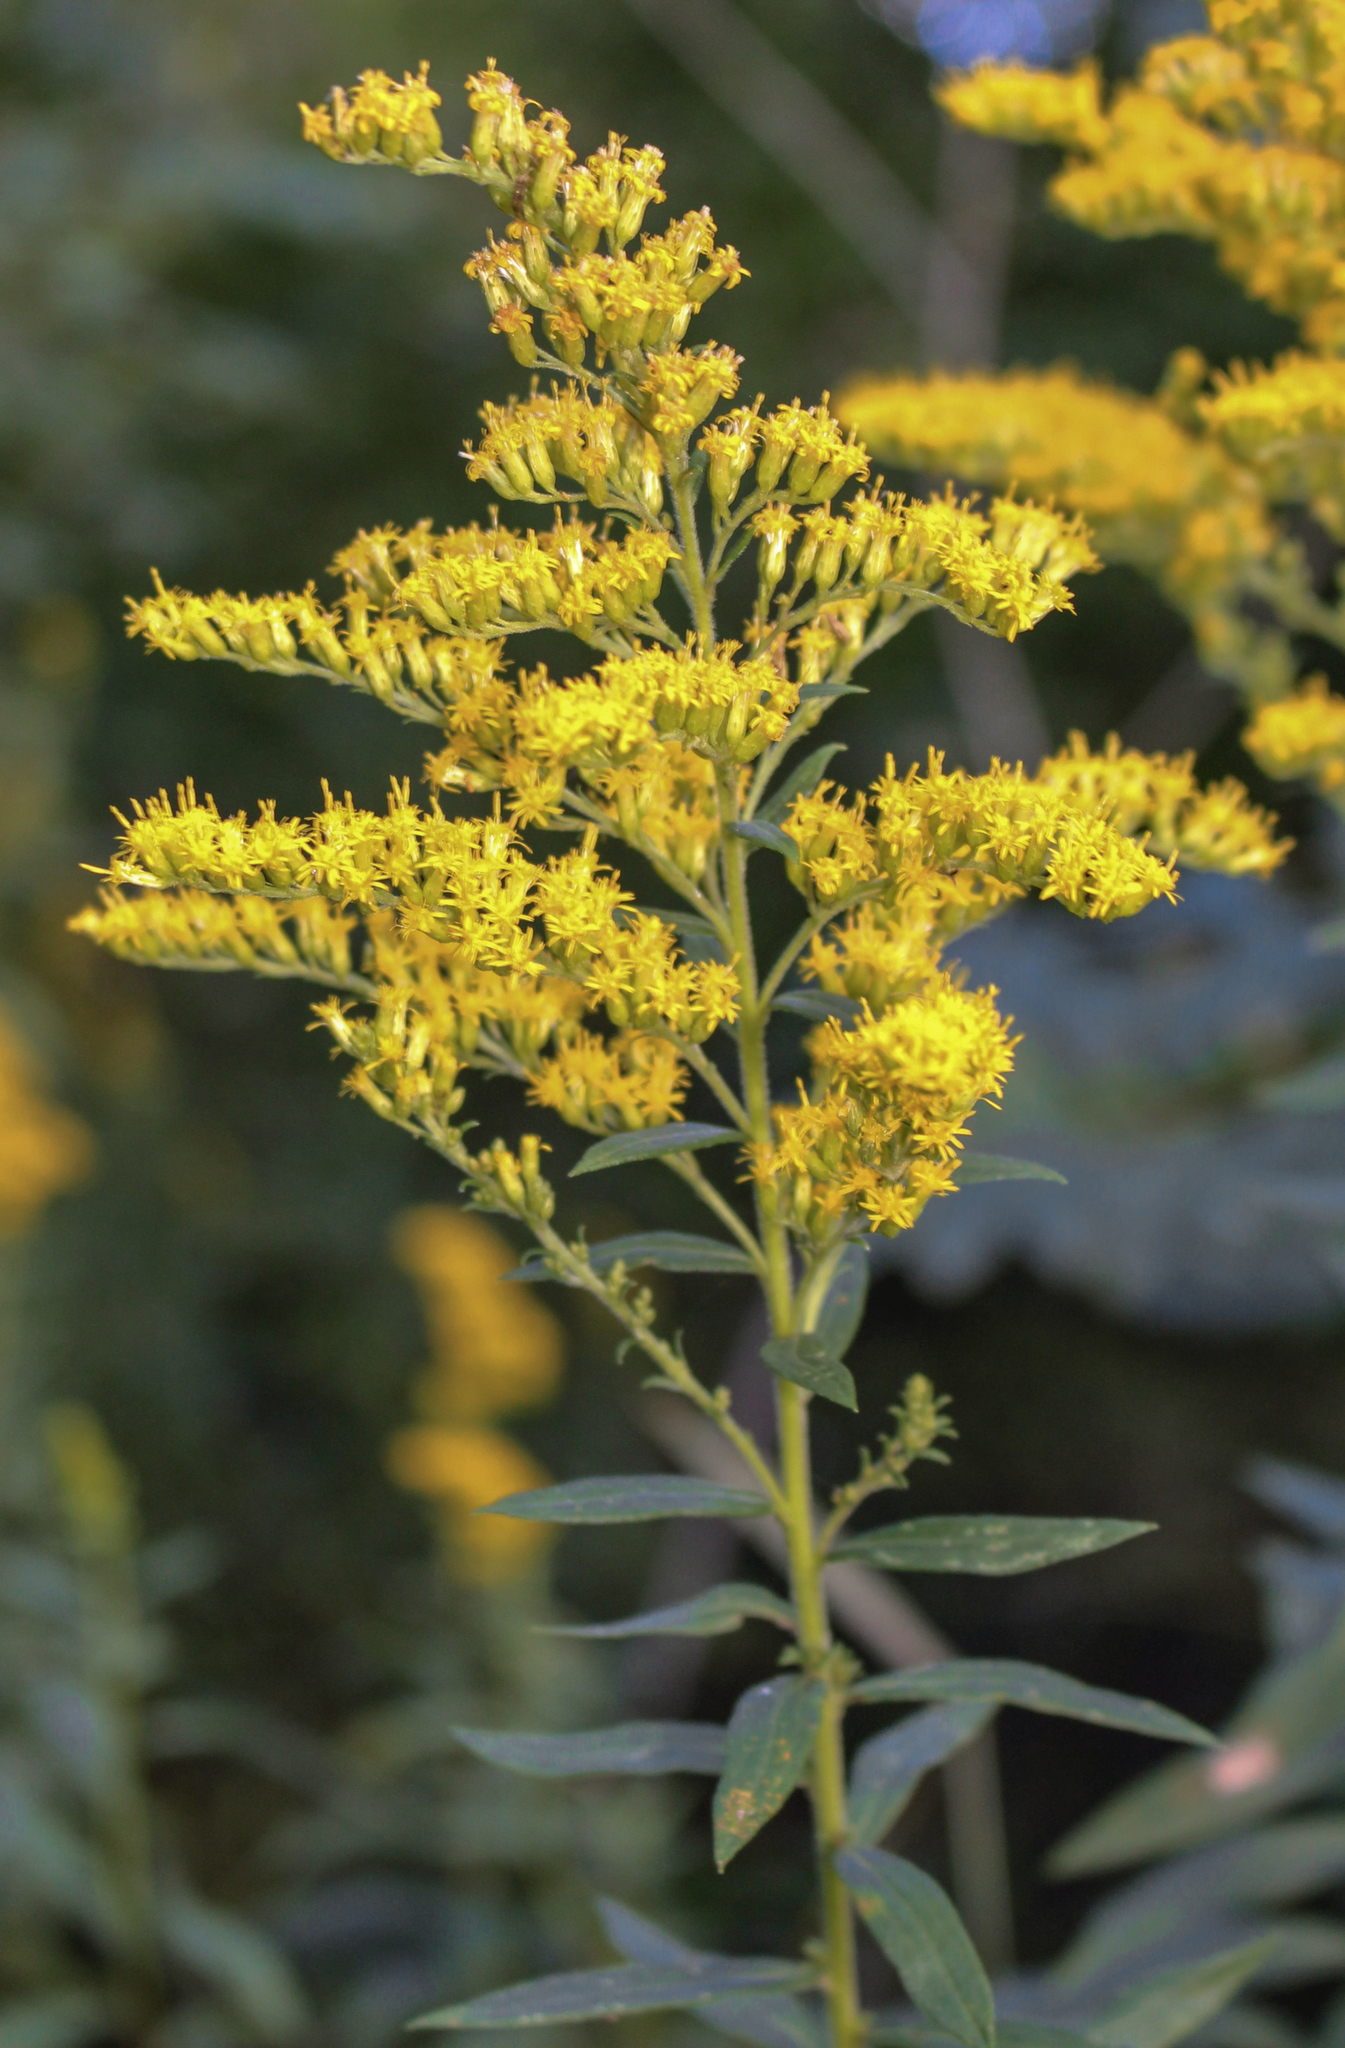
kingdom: Plantae
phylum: Tracheophyta
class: Magnoliopsida
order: Asterales
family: Asteraceae
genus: Solidago
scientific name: Solidago canadensis
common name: Canada goldenrod
